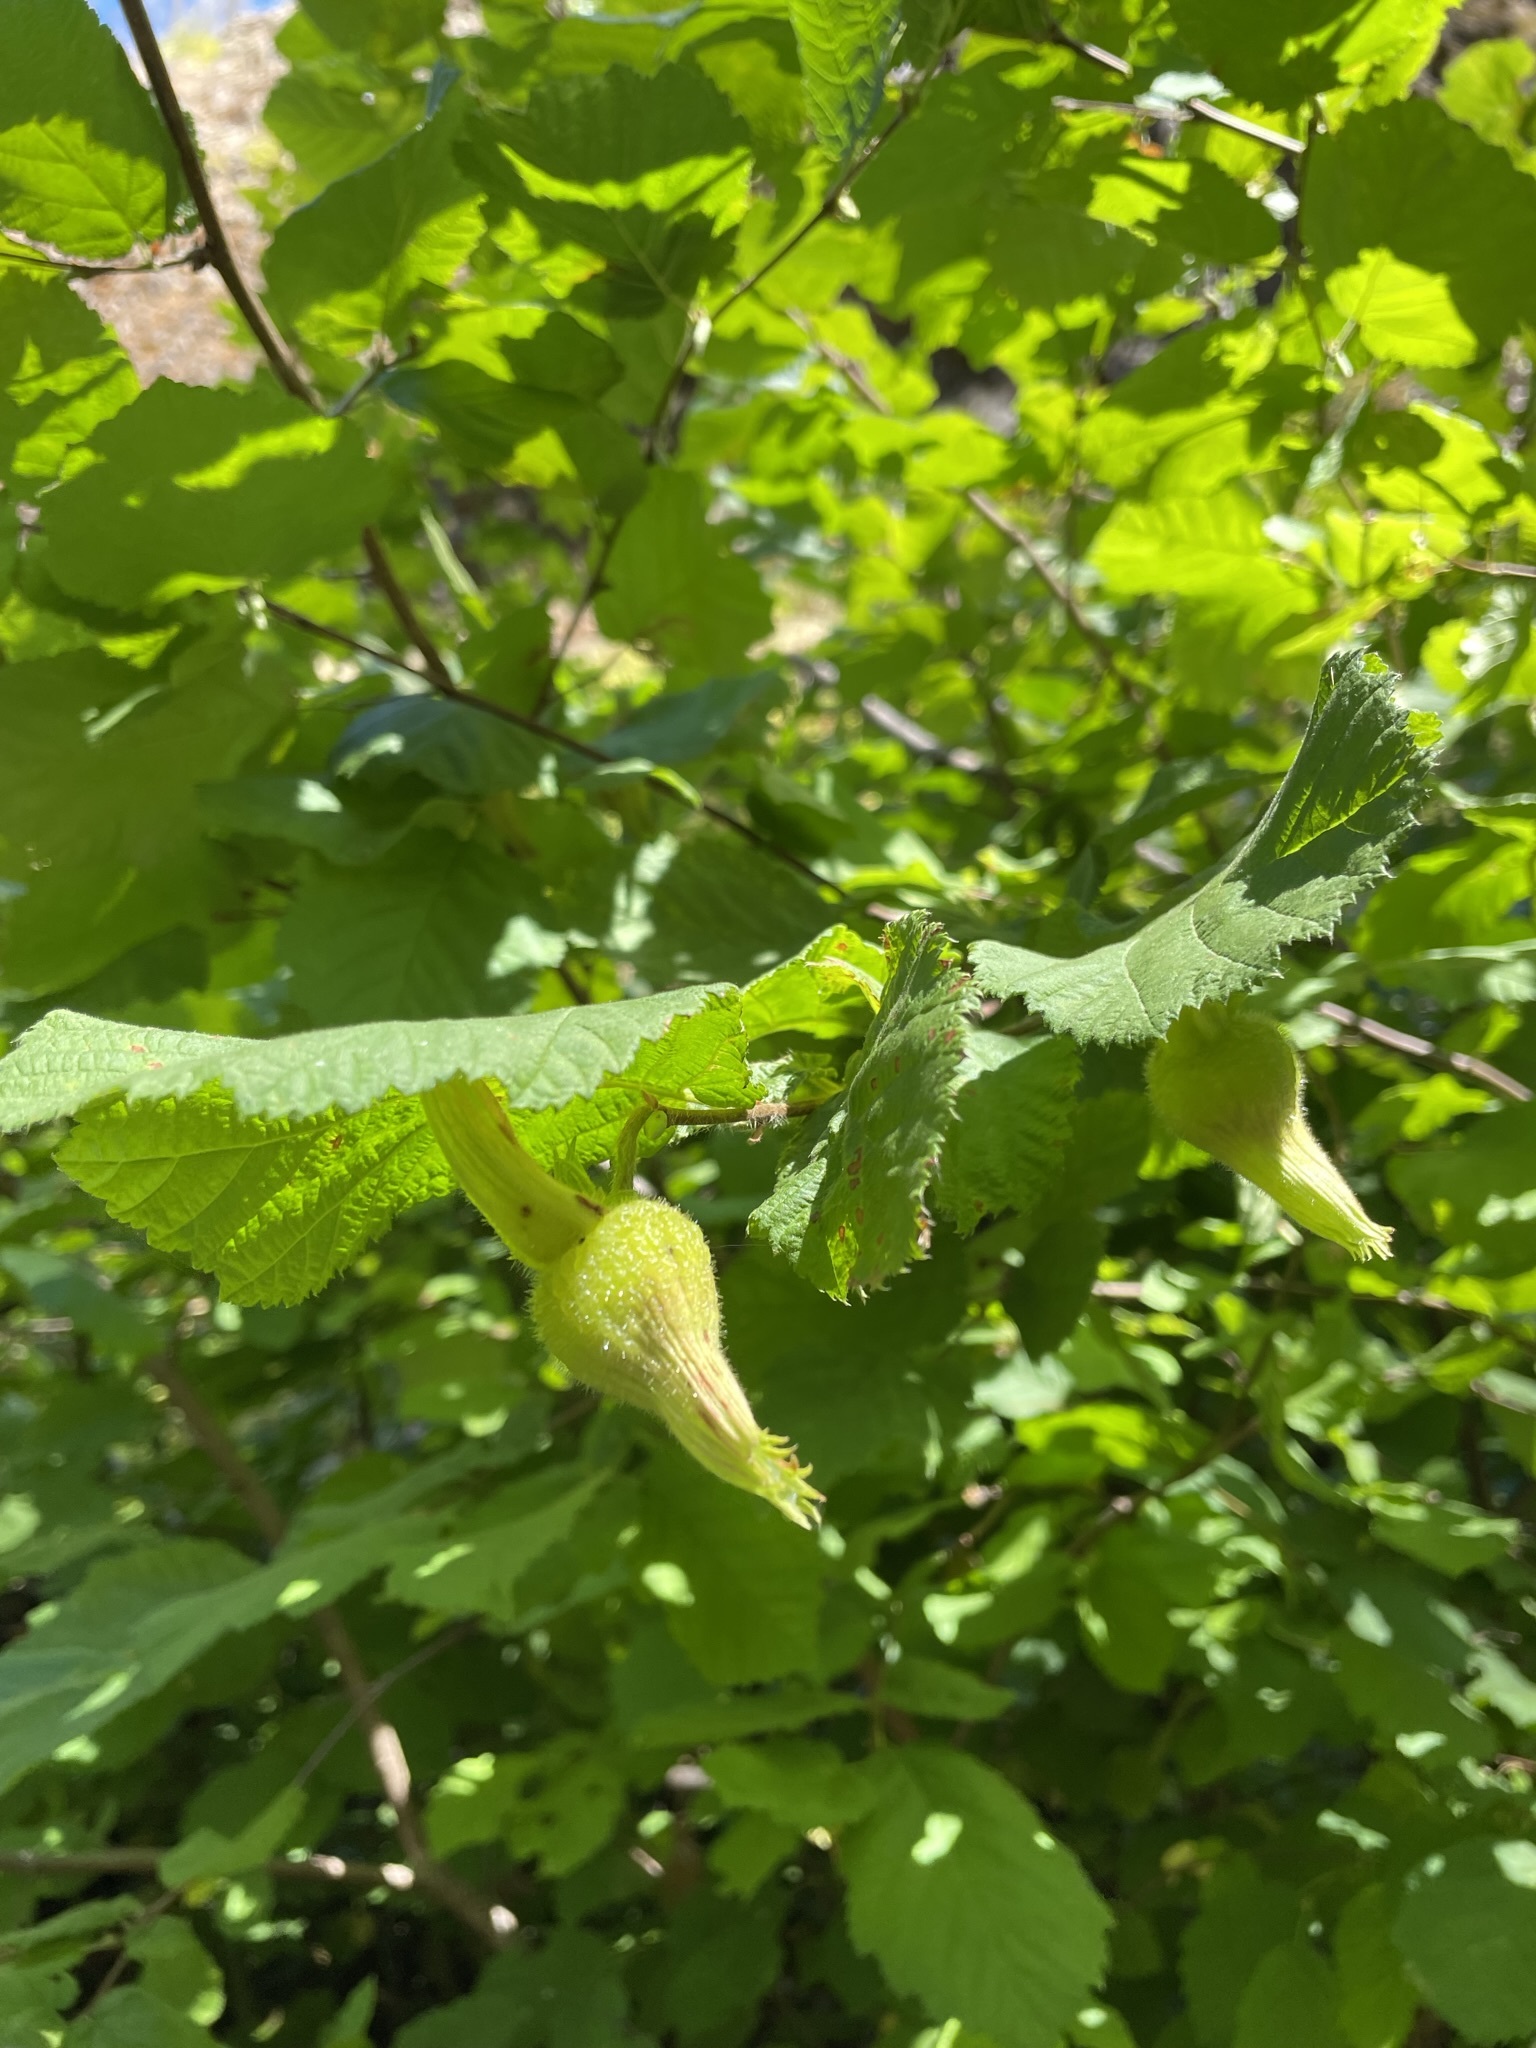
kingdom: Plantae
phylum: Tracheophyta
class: Magnoliopsida
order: Fagales
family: Betulaceae
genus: Corylus
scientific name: Corylus cornuta
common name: Beaked hazel
